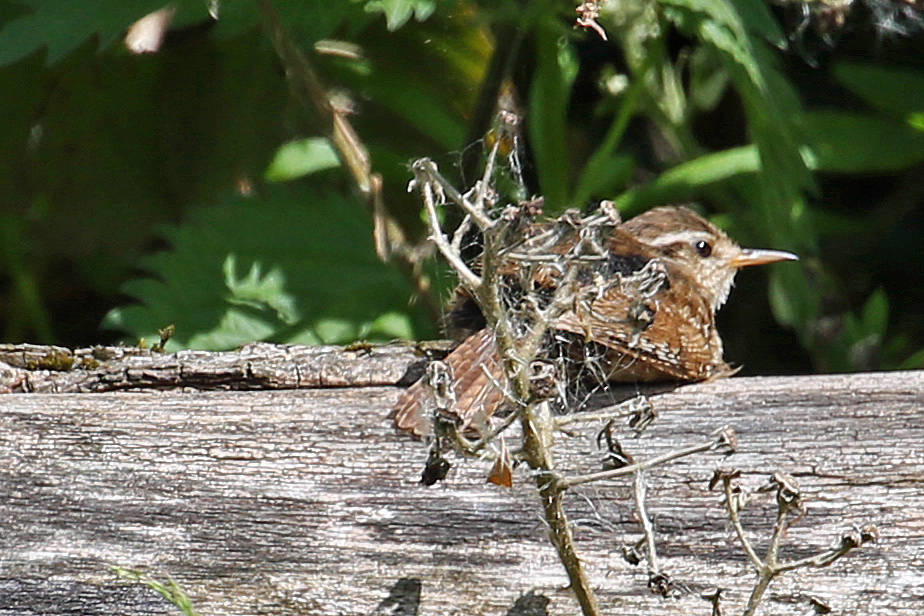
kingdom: Animalia
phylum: Chordata
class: Aves
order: Passeriformes
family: Troglodytidae
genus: Troglodytes
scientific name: Troglodytes troglodytes
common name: Eurasian wren
